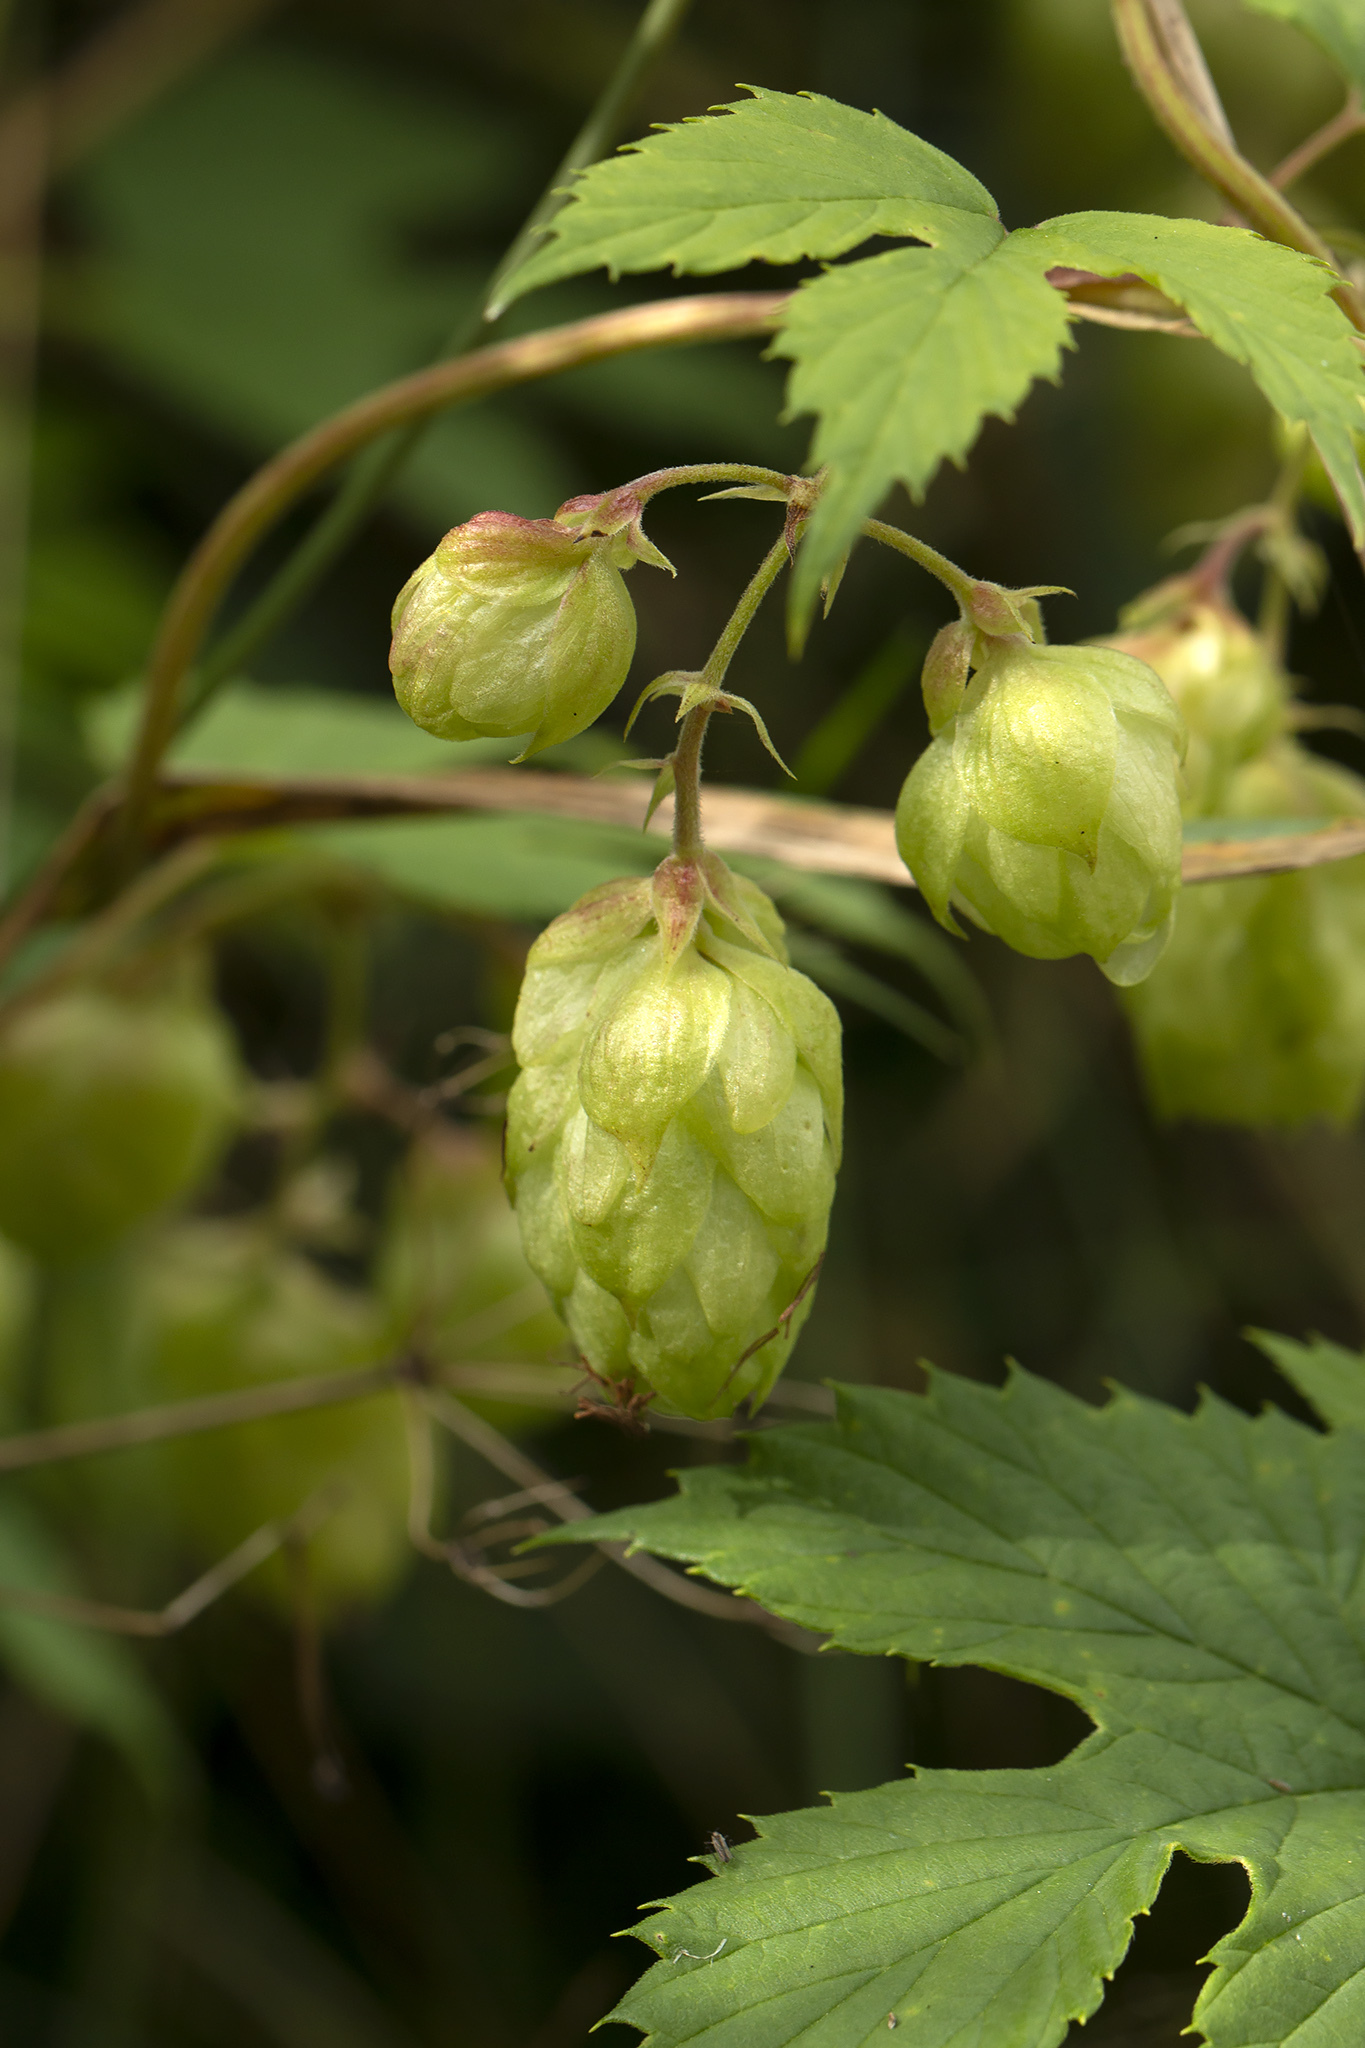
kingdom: Plantae
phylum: Tracheophyta
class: Magnoliopsida
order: Rosales
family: Cannabaceae
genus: Humulus
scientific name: Humulus lupulus
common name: Hop
